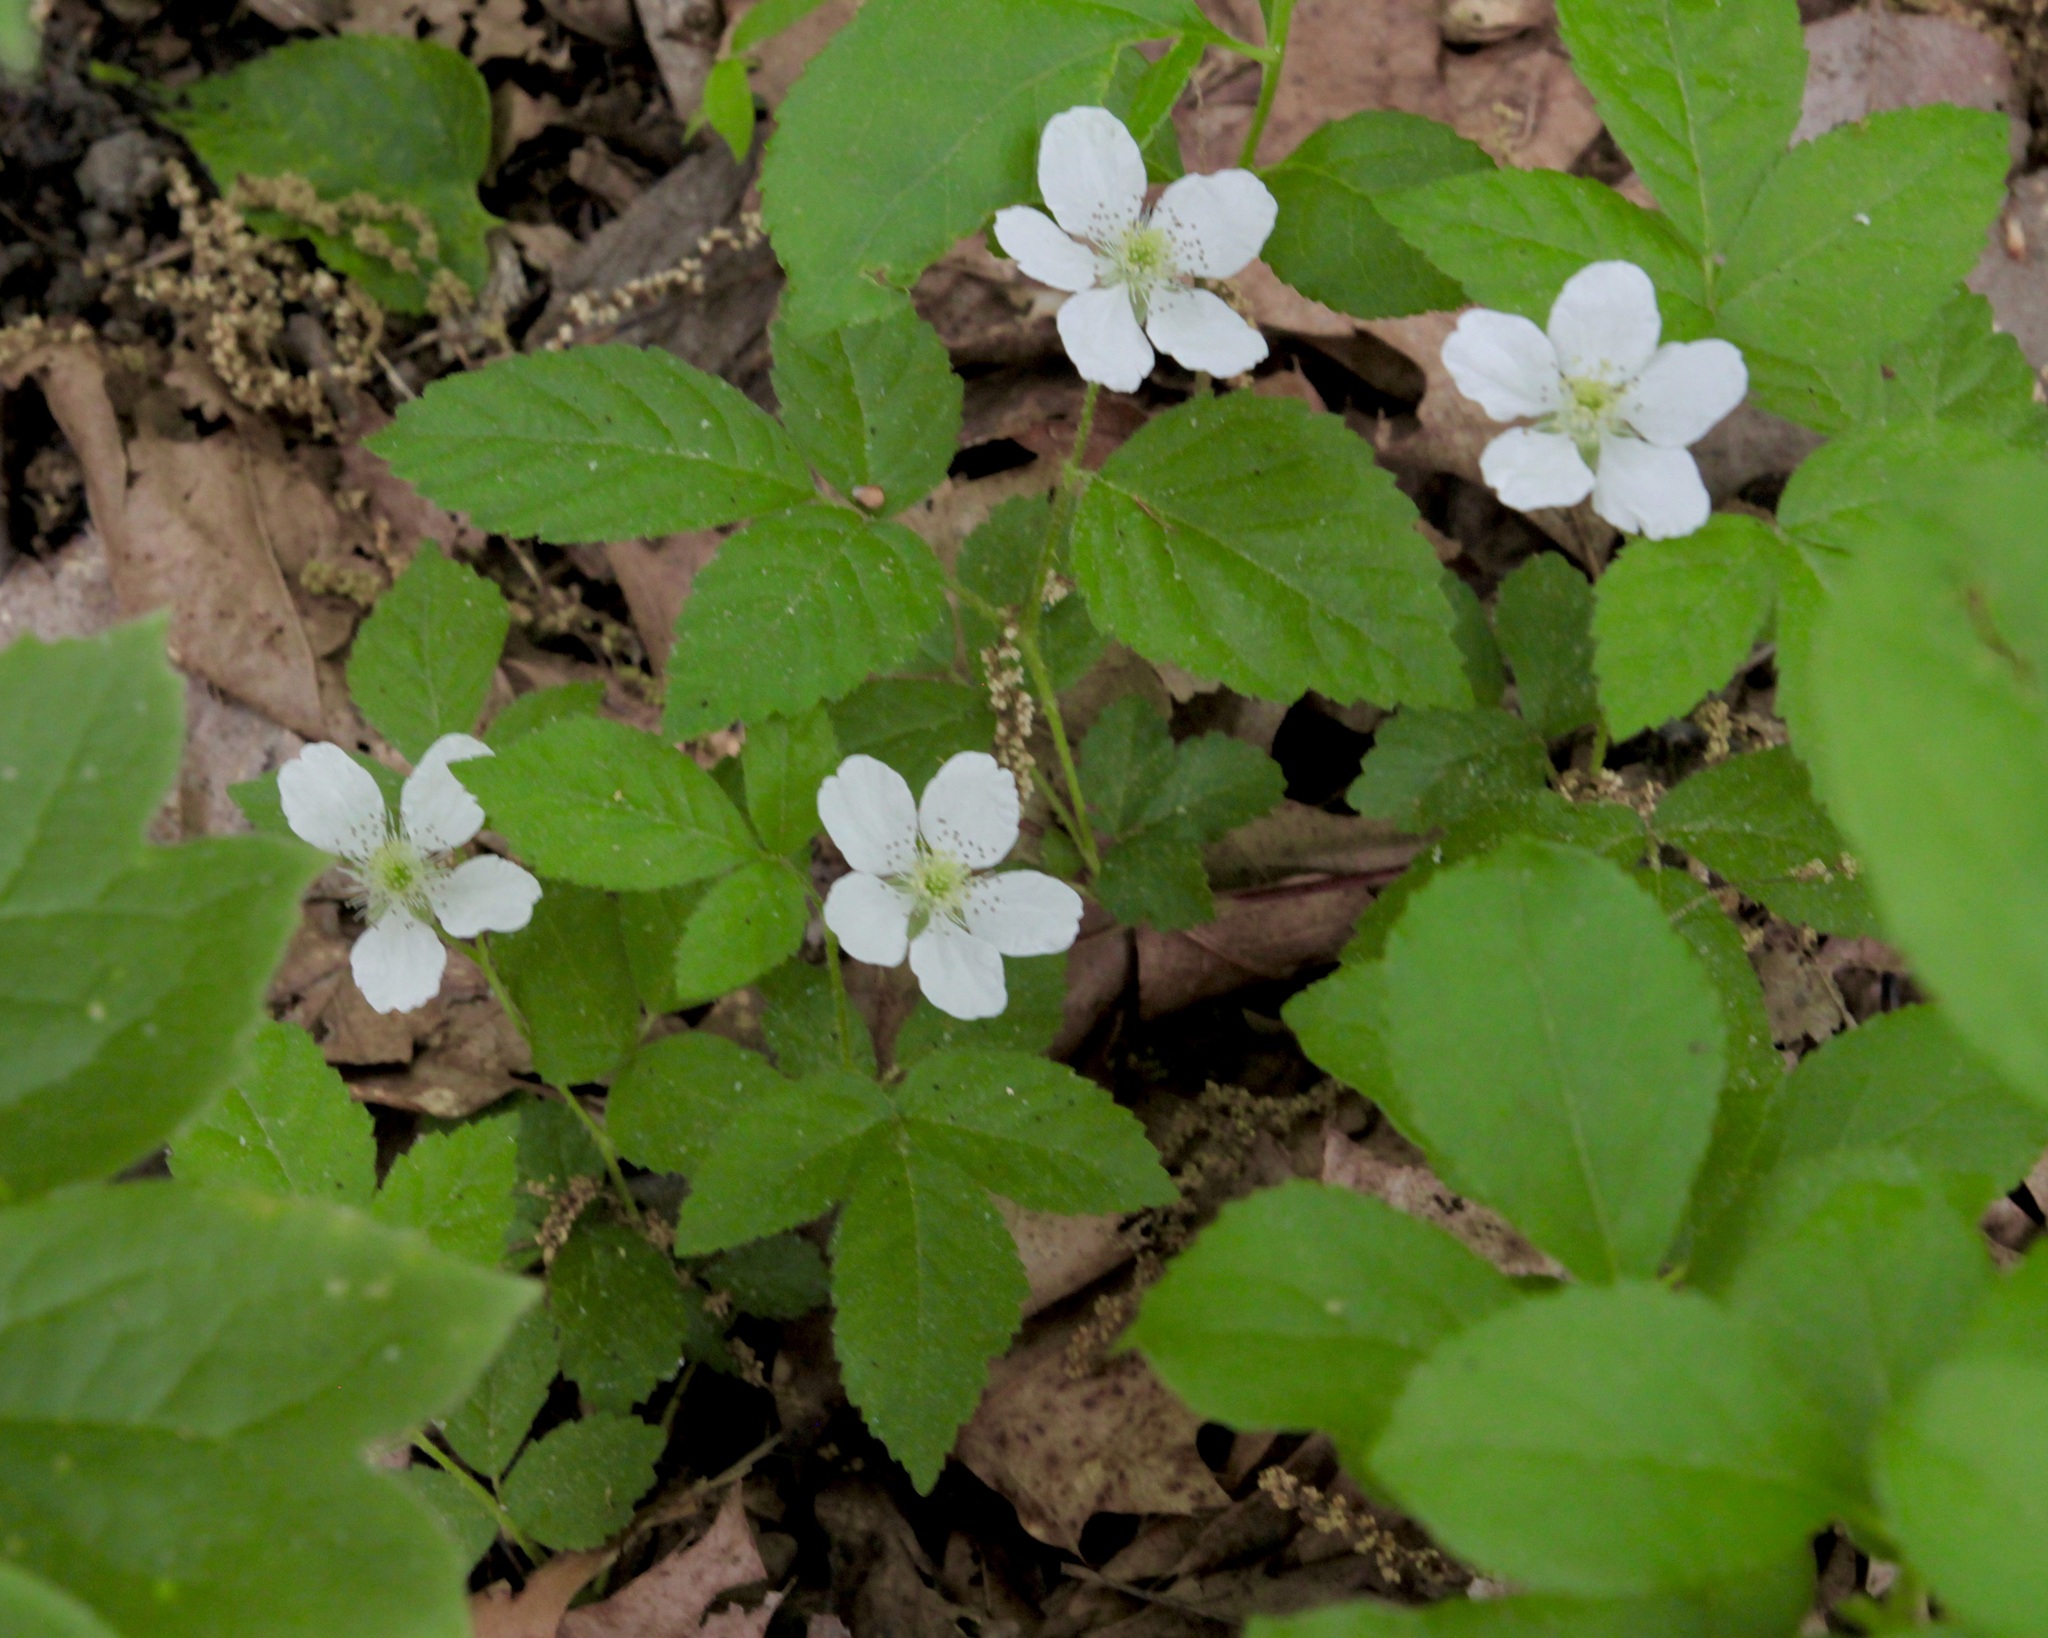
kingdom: Plantae
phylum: Tracheophyta
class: Magnoliopsida
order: Rosales
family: Rosaceae
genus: Rubus
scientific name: Rubus flagellaris
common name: American dewberry
